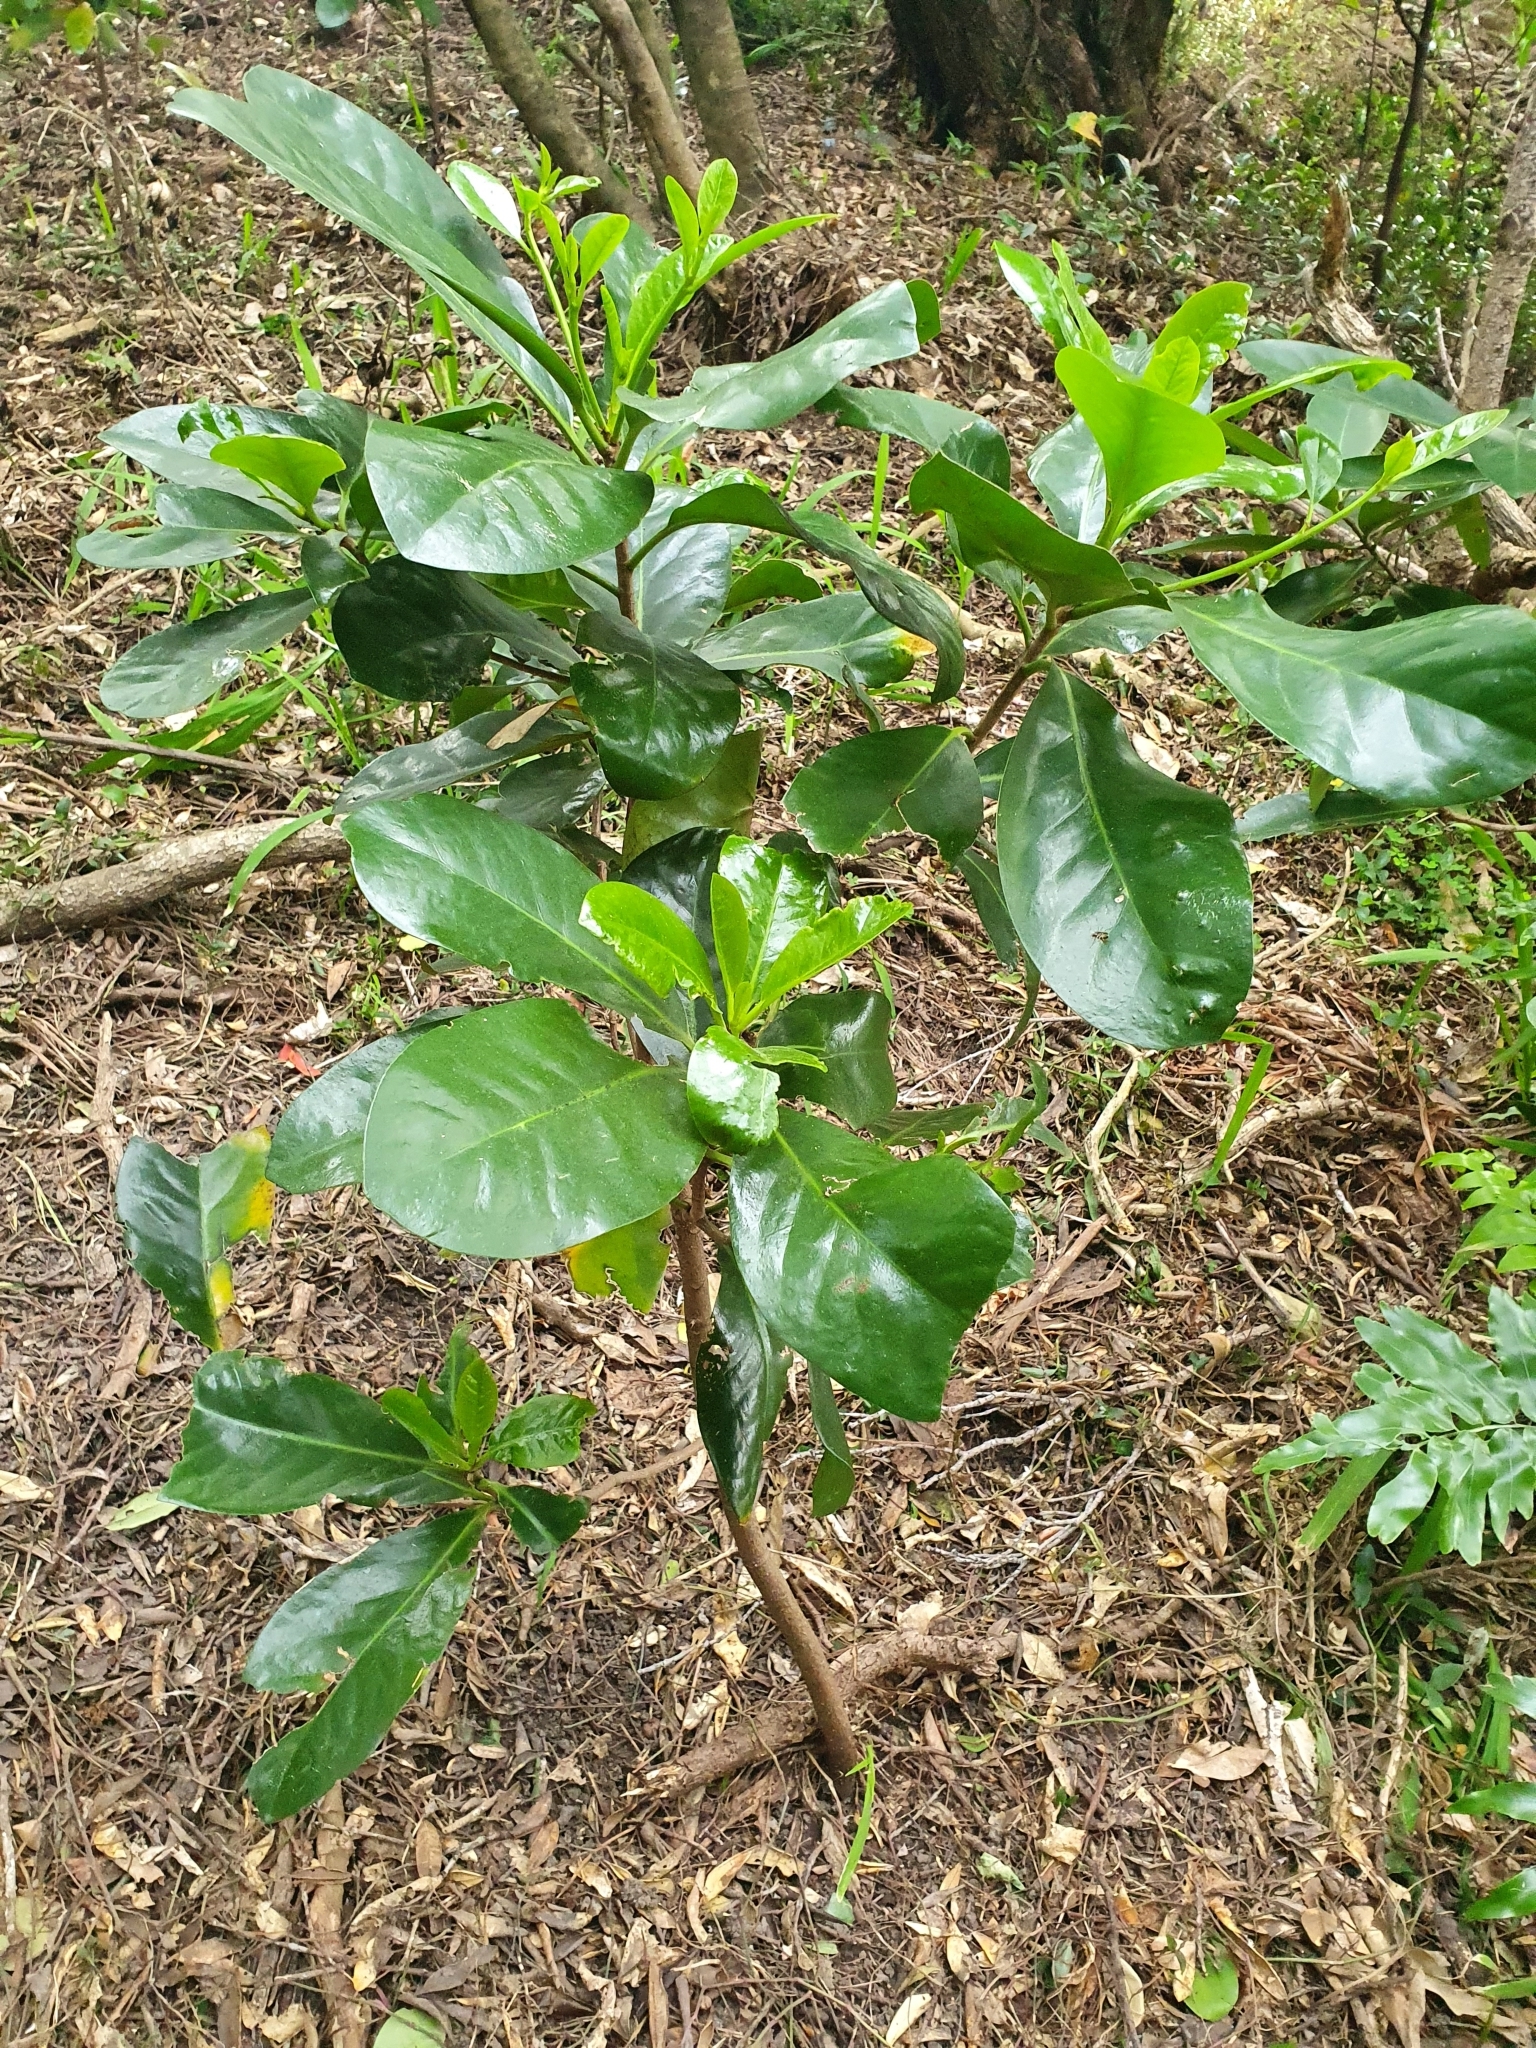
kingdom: Plantae
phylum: Tracheophyta
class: Magnoliopsida
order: Cucurbitales
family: Corynocarpaceae
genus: Corynocarpus
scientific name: Corynocarpus laevigatus
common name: New zealand laurel
